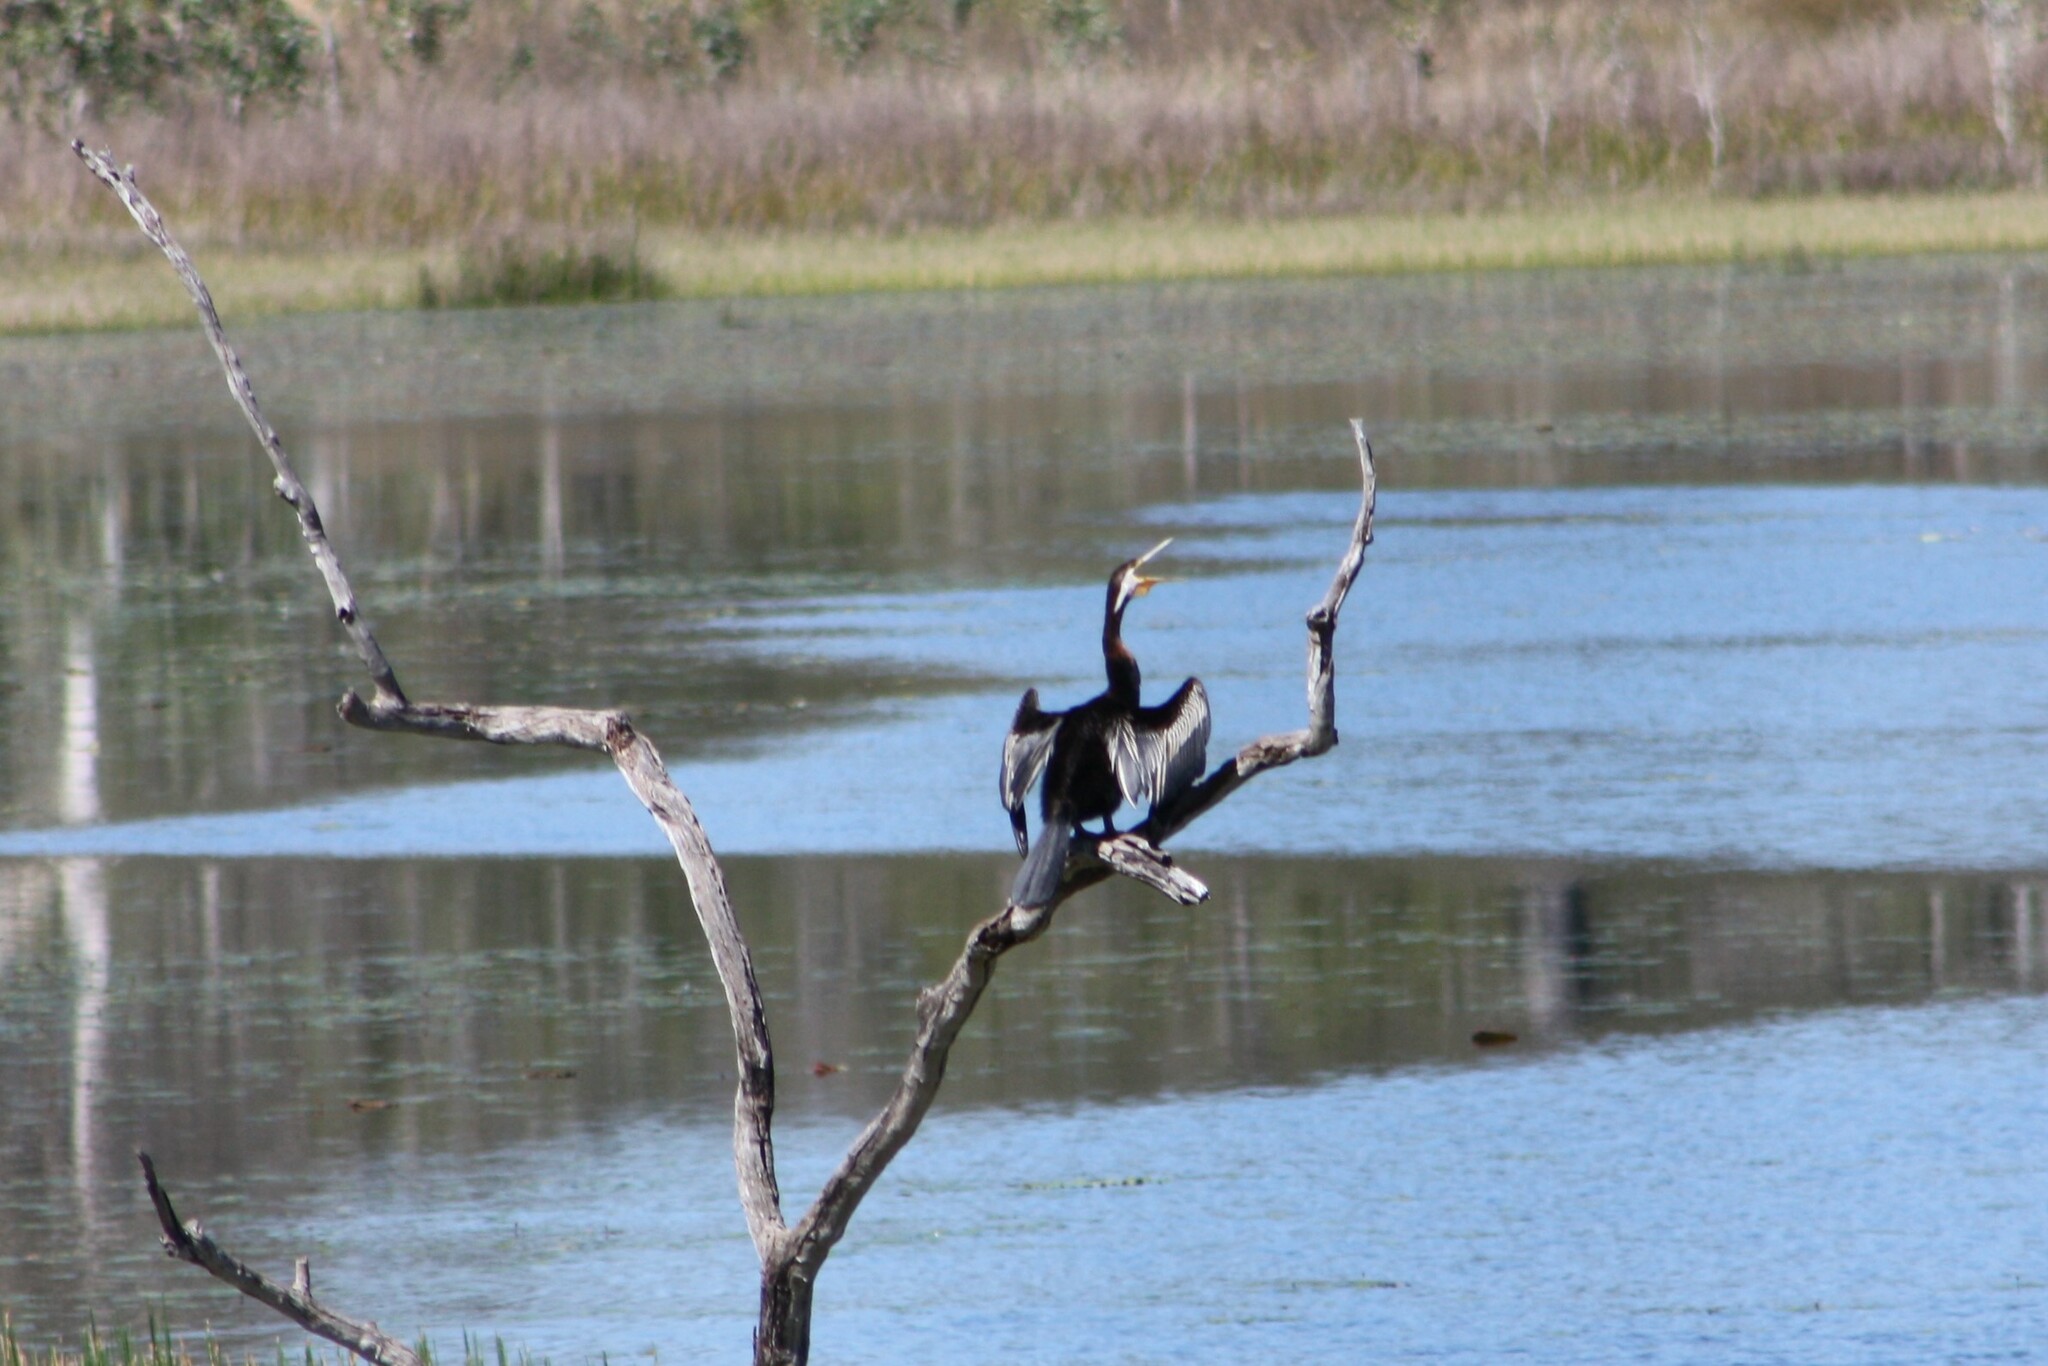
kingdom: Animalia
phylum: Chordata
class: Aves
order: Suliformes
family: Anhingidae
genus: Anhinga
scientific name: Anhinga novaehollandiae
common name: Australasian darter
